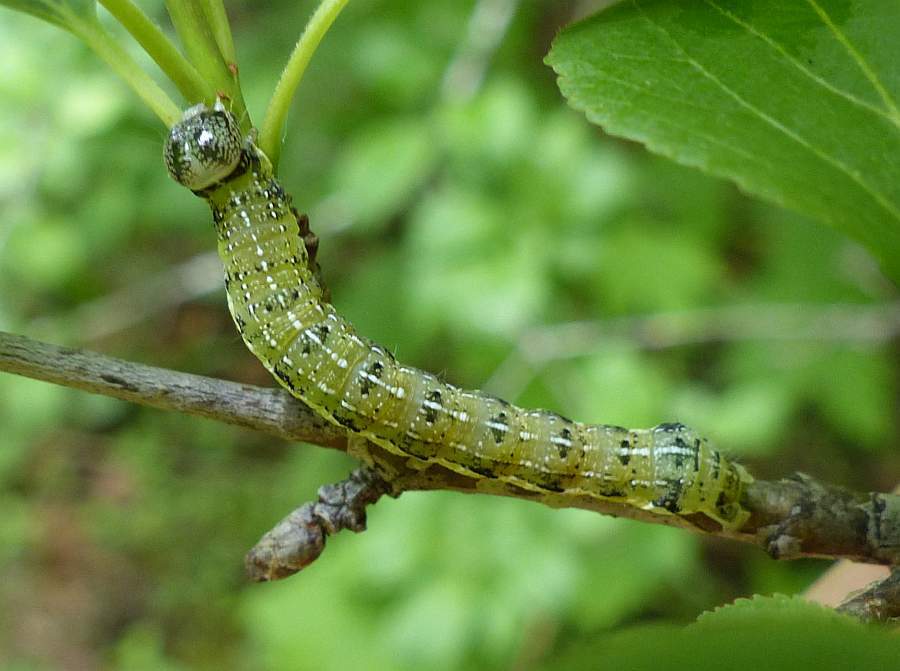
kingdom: Animalia
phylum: Arthropoda
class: Insecta
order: Lepidoptera
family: Noctuidae
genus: Orthosia
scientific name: Orthosia rubescens
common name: Ruby quaker
